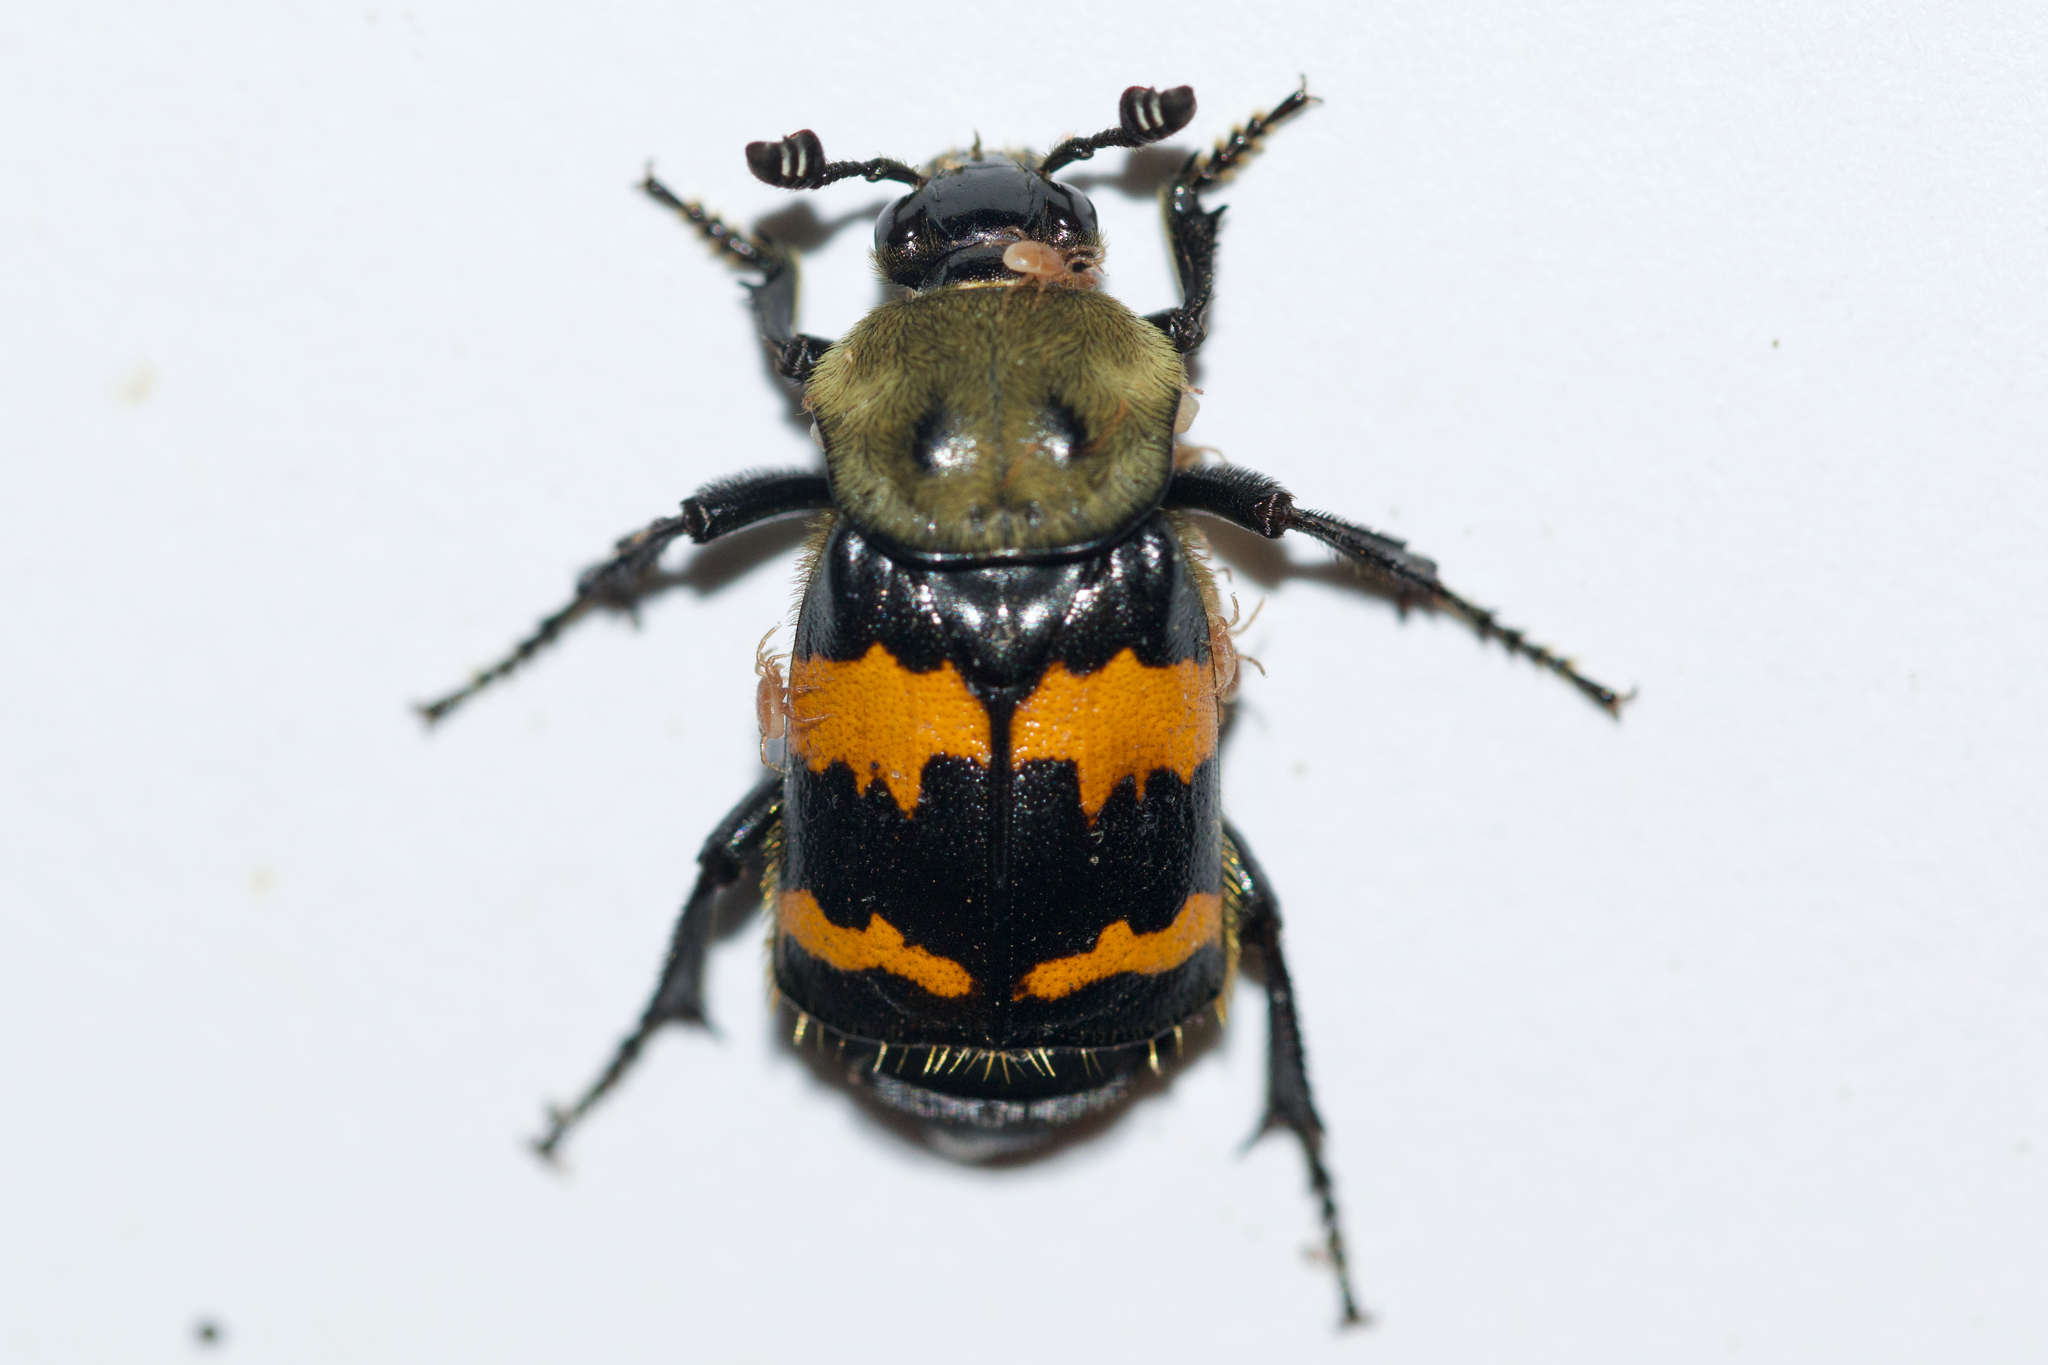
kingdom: Animalia
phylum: Arthropoda
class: Insecta
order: Coleoptera
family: Staphylinidae
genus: Nicrophorus
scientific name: Nicrophorus tomentosus
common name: Tomentose burying beetle
